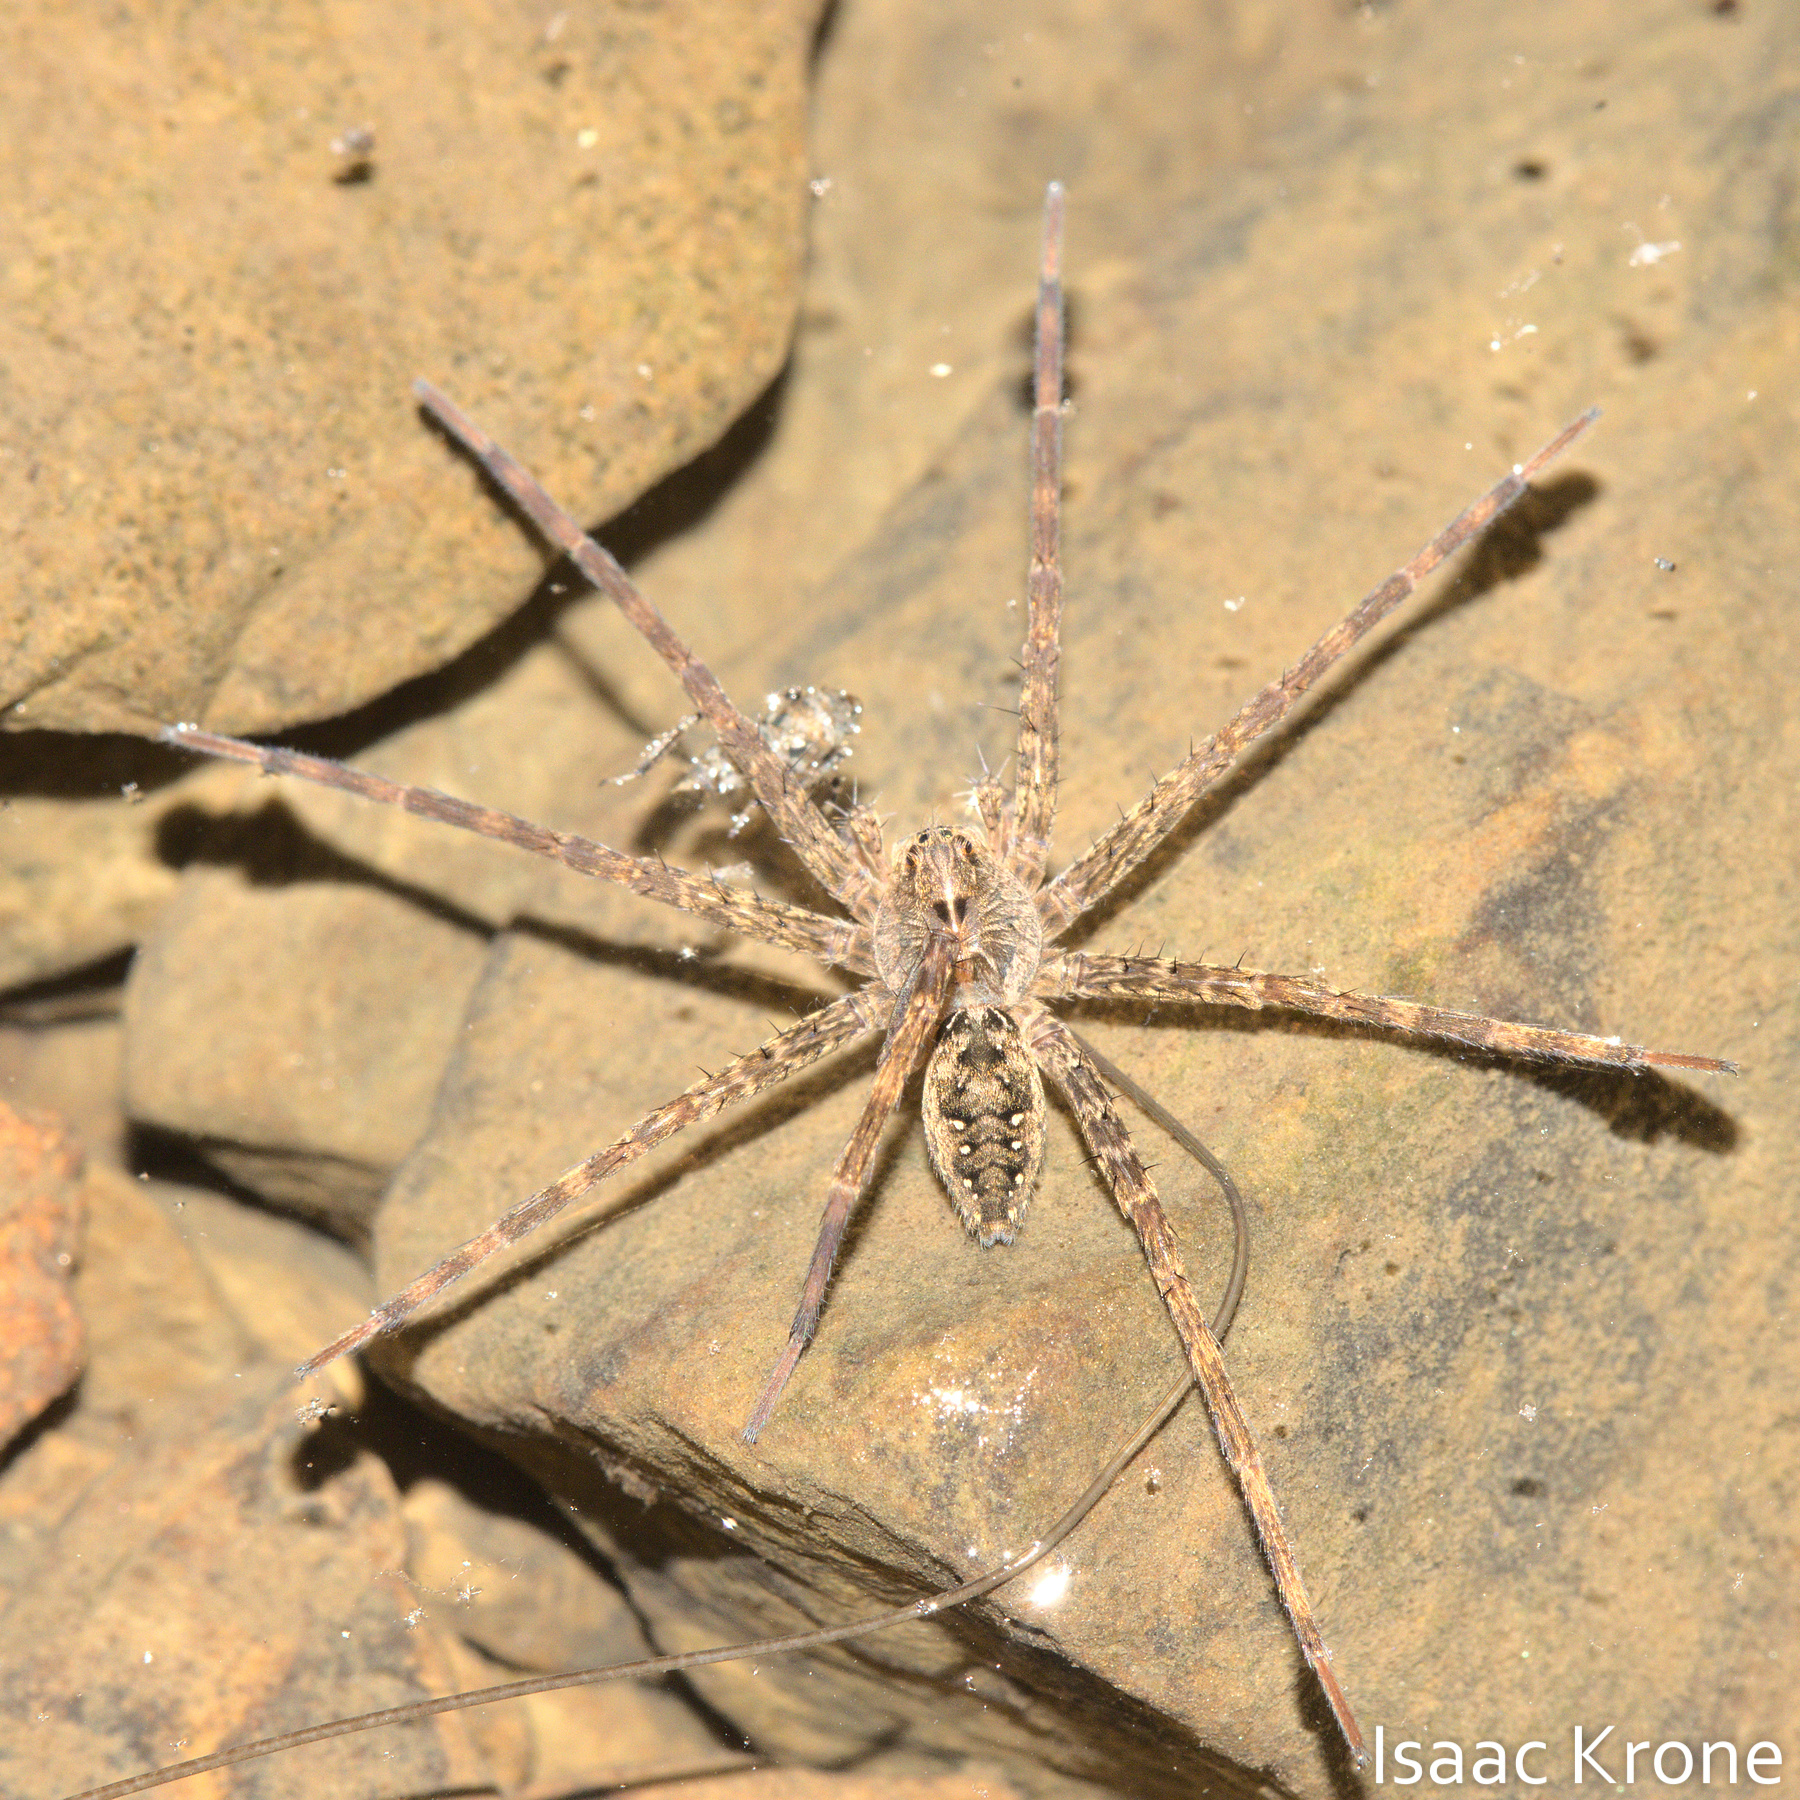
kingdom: Animalia
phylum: Arthropoda
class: Arachnida
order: Araneae
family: Pisauridae
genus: Dolomedes
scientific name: Dolomedes vittatus
